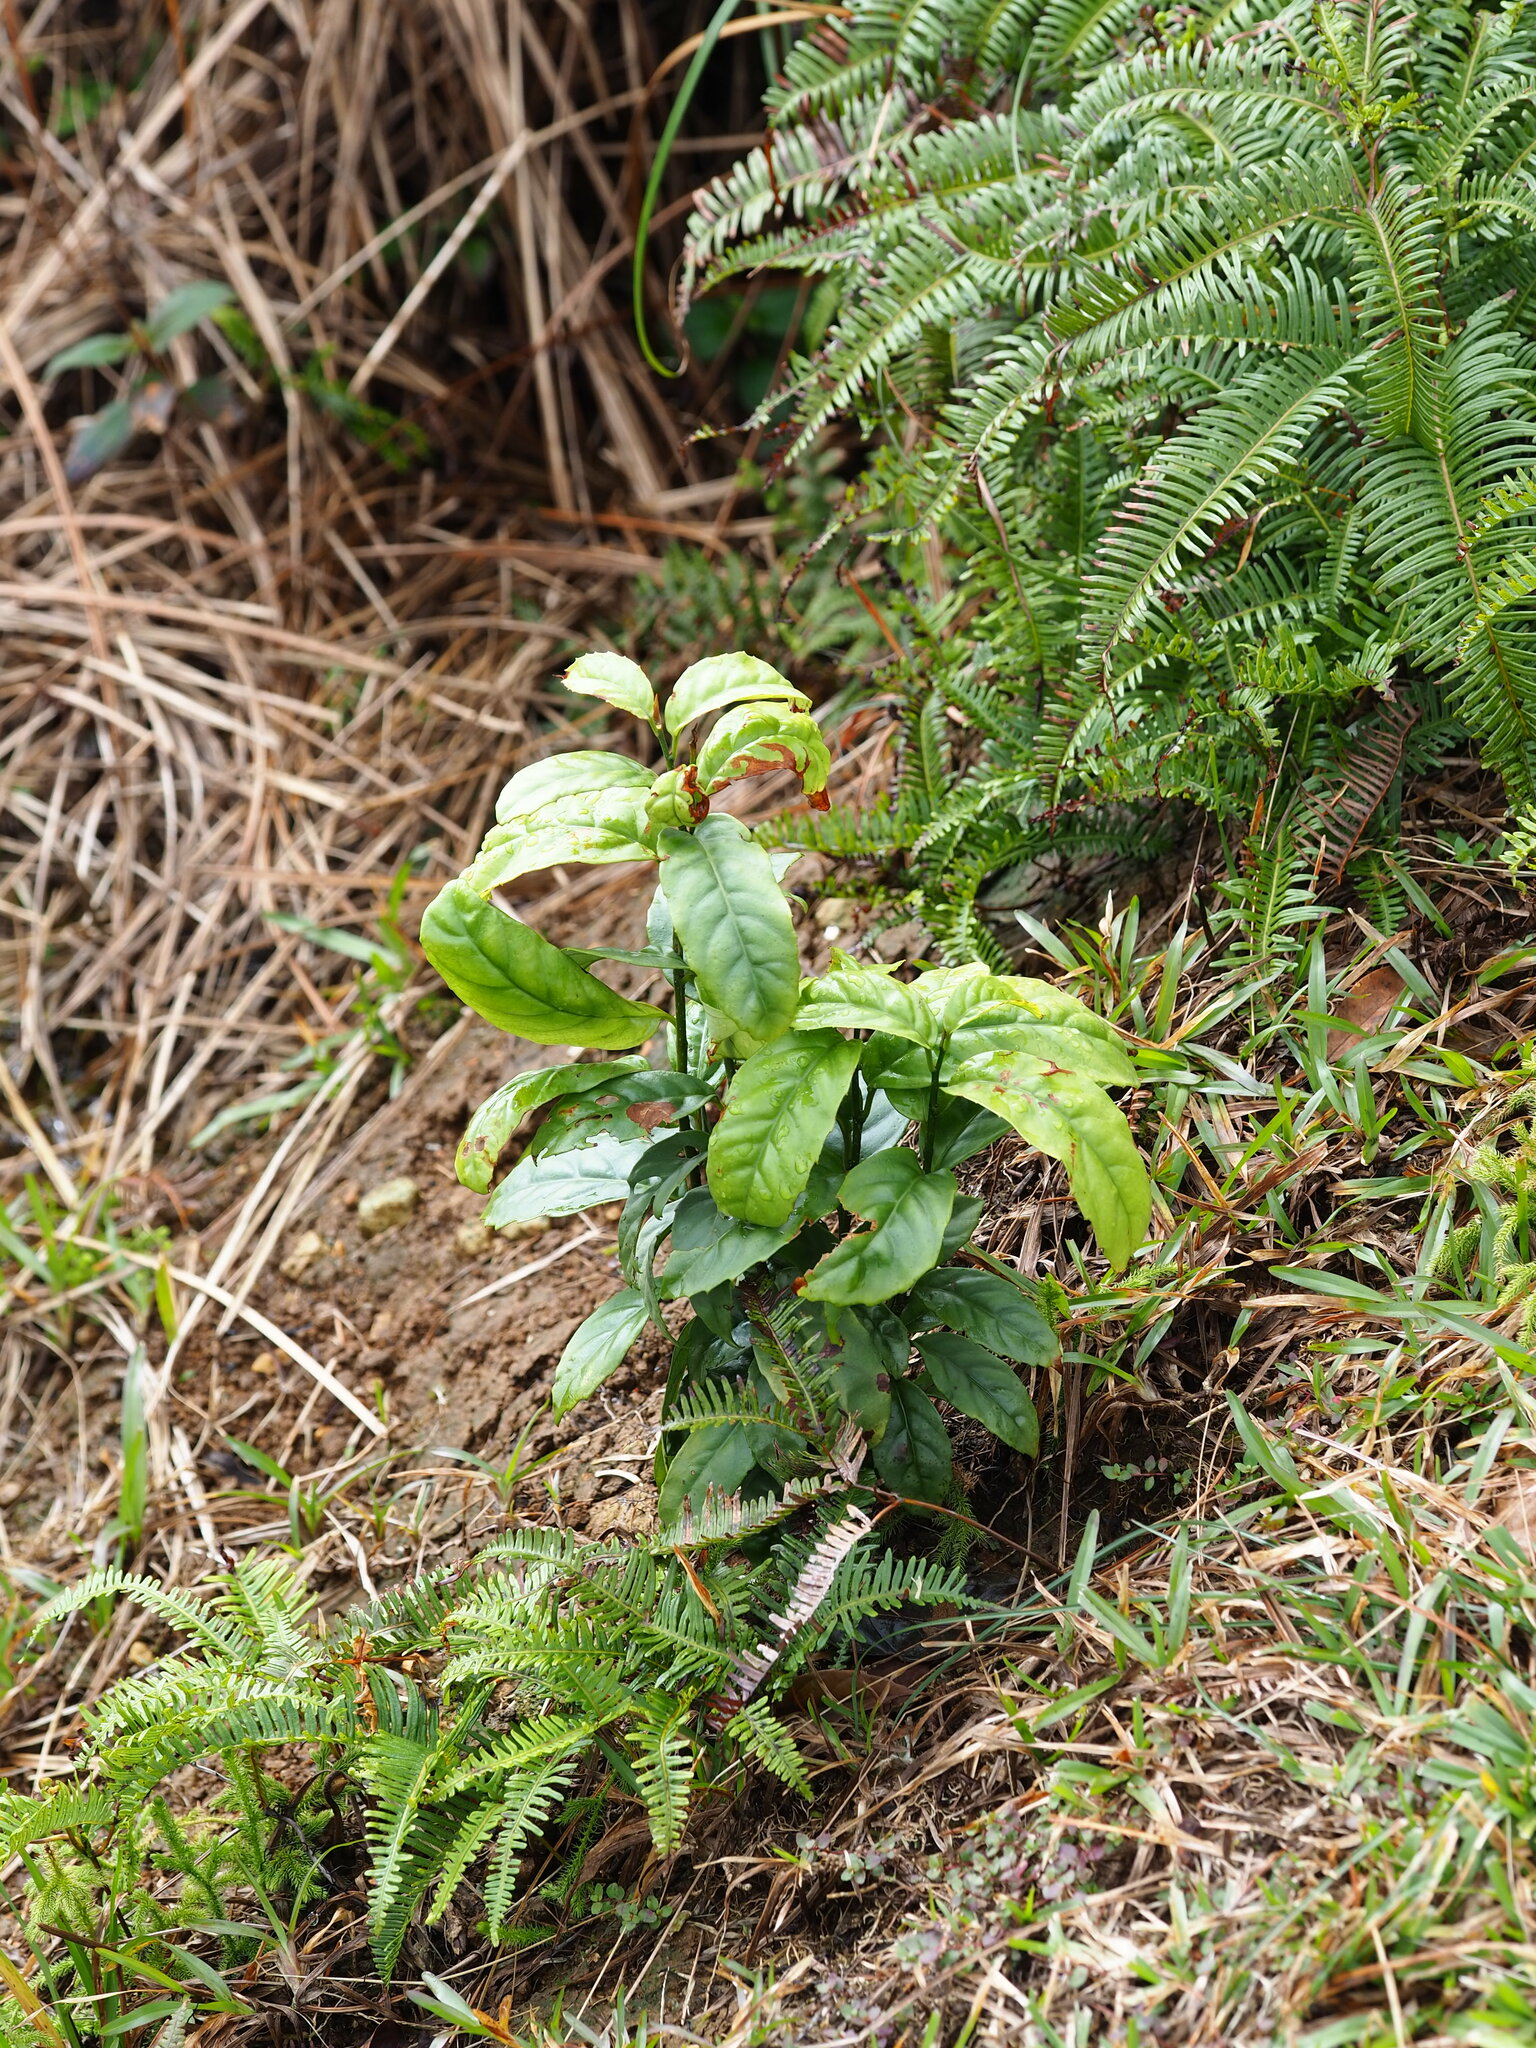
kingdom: Plantae
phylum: Tracheophyta
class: Magnoliopsida
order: Ericales
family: Primulaceae
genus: Maesa
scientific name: Maesa perlaria
